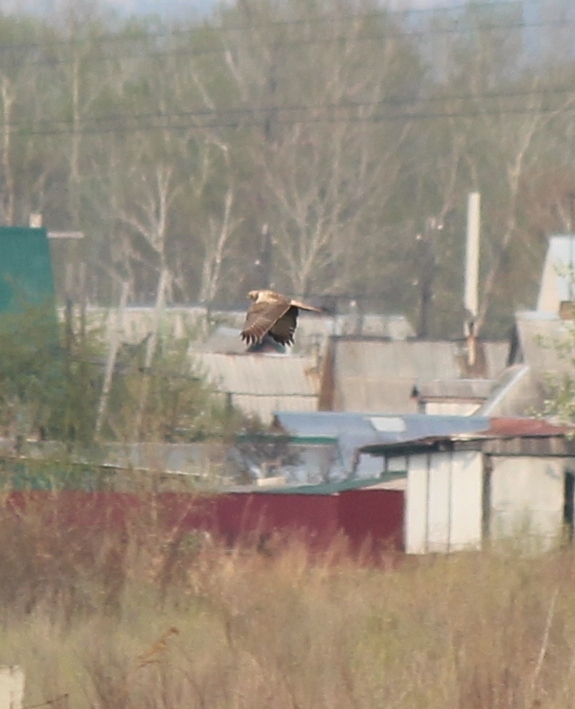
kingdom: Animalia
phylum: Chordata
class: Aves
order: Accipitriformes
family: Accipitridae
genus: Circus
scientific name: Circus spilonotus
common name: Eastern marsh-harrier
